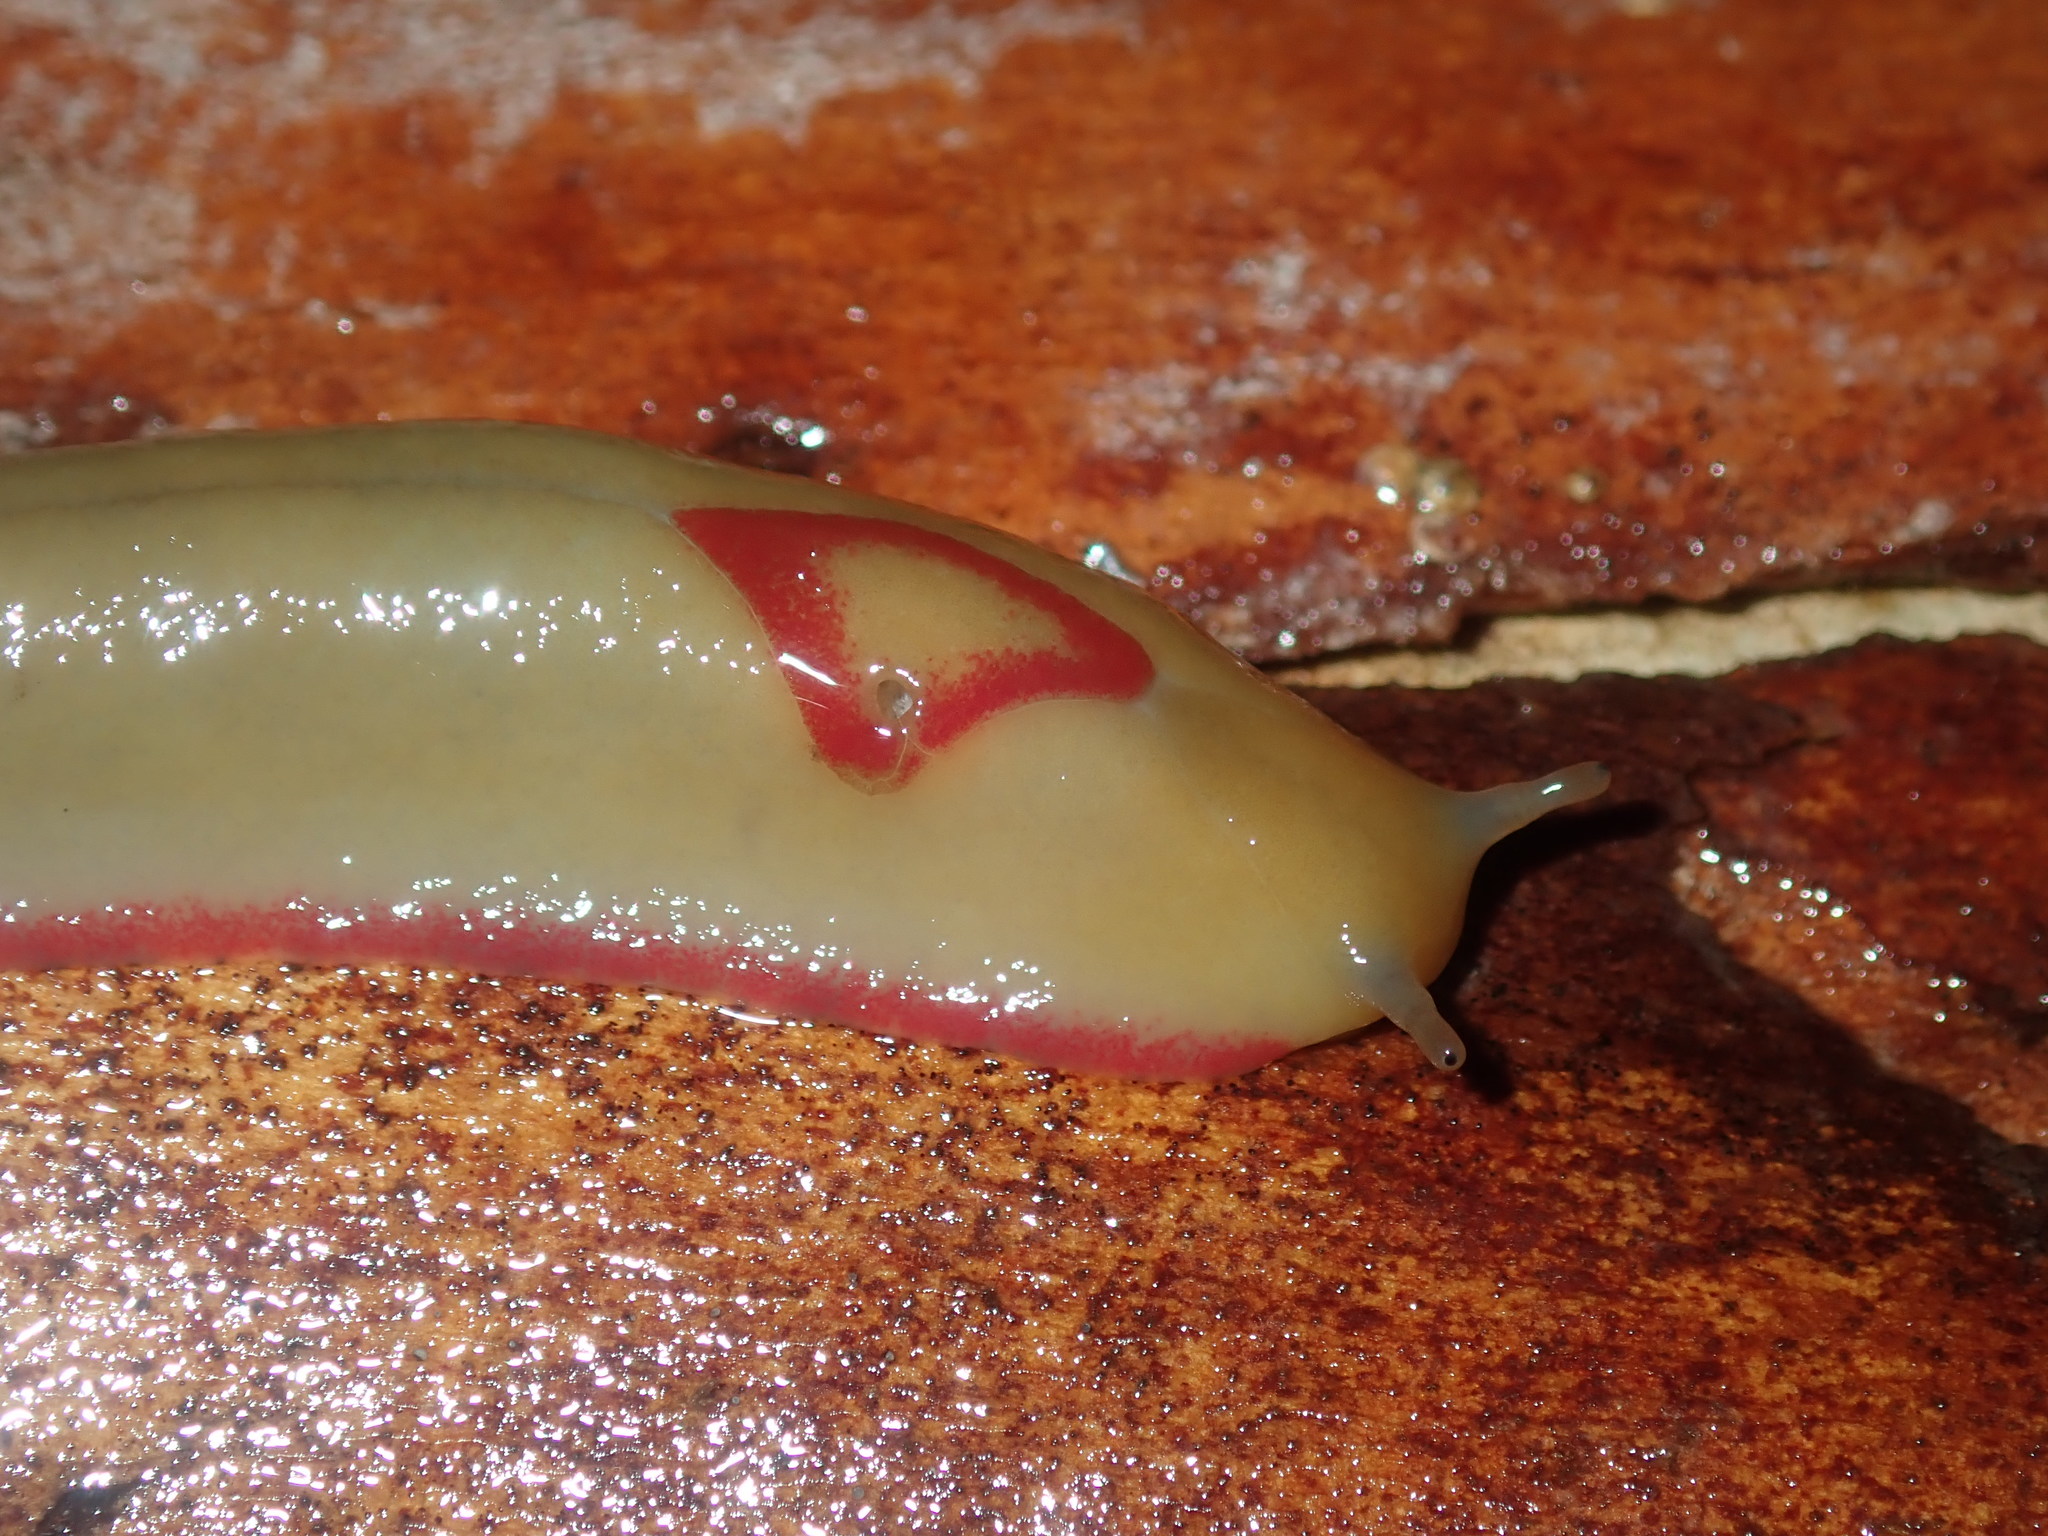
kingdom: Animalia
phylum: Mollusca
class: Gastropoda
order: Stylommatophora
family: Athoracophoridae
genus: Triboniophorus
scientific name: Triboniophorus graeffei
